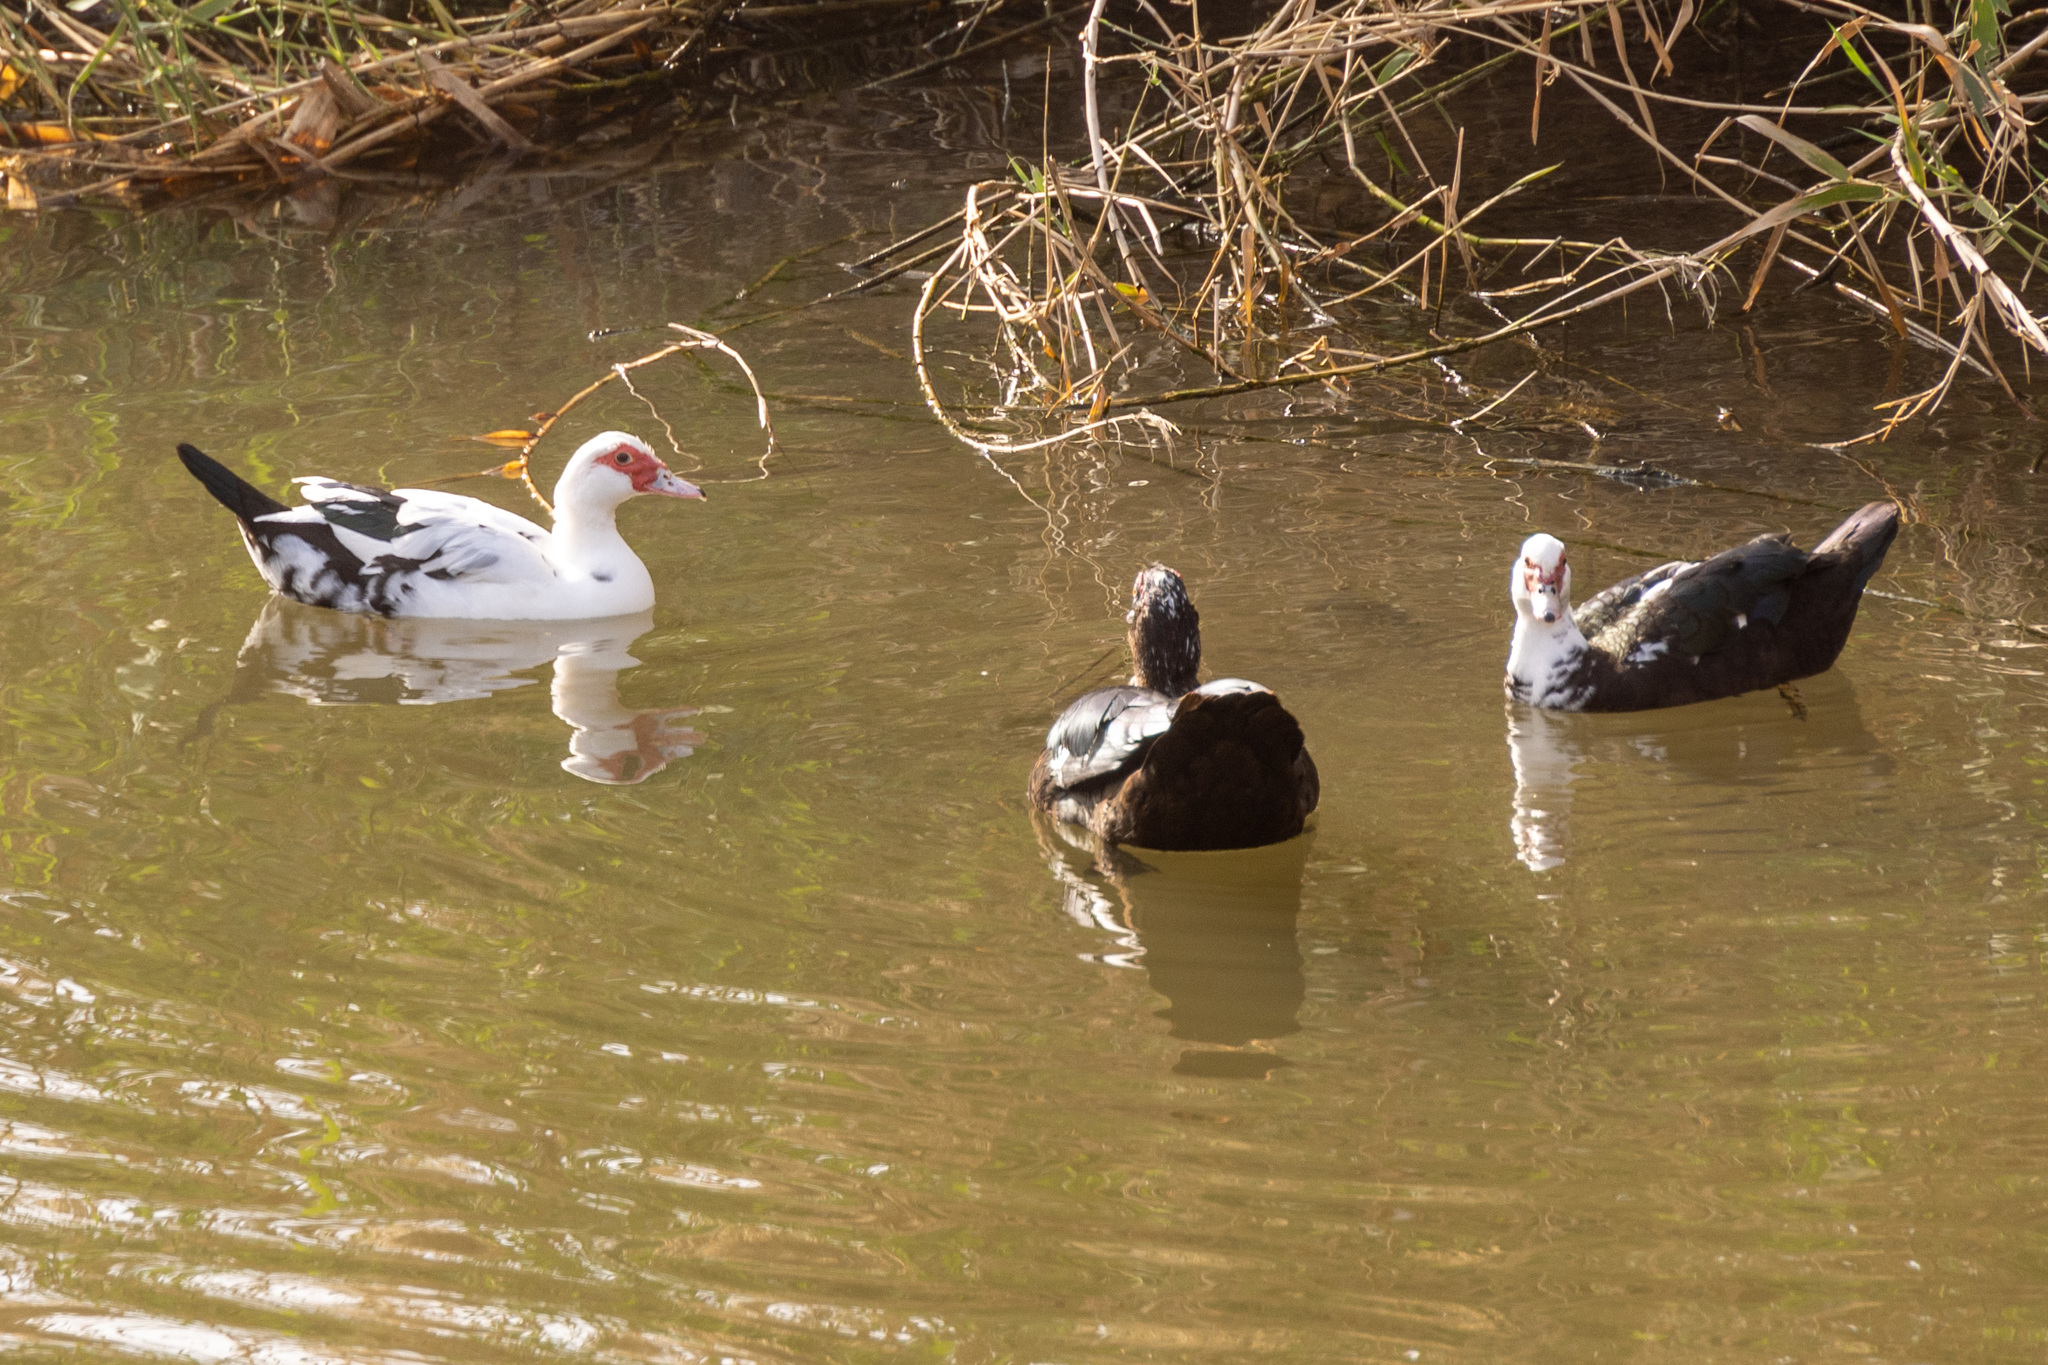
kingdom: Animalia
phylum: Chordata
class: Aves
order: Anseriformes
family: Anatidae
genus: Cairina
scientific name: Cairina moschata
